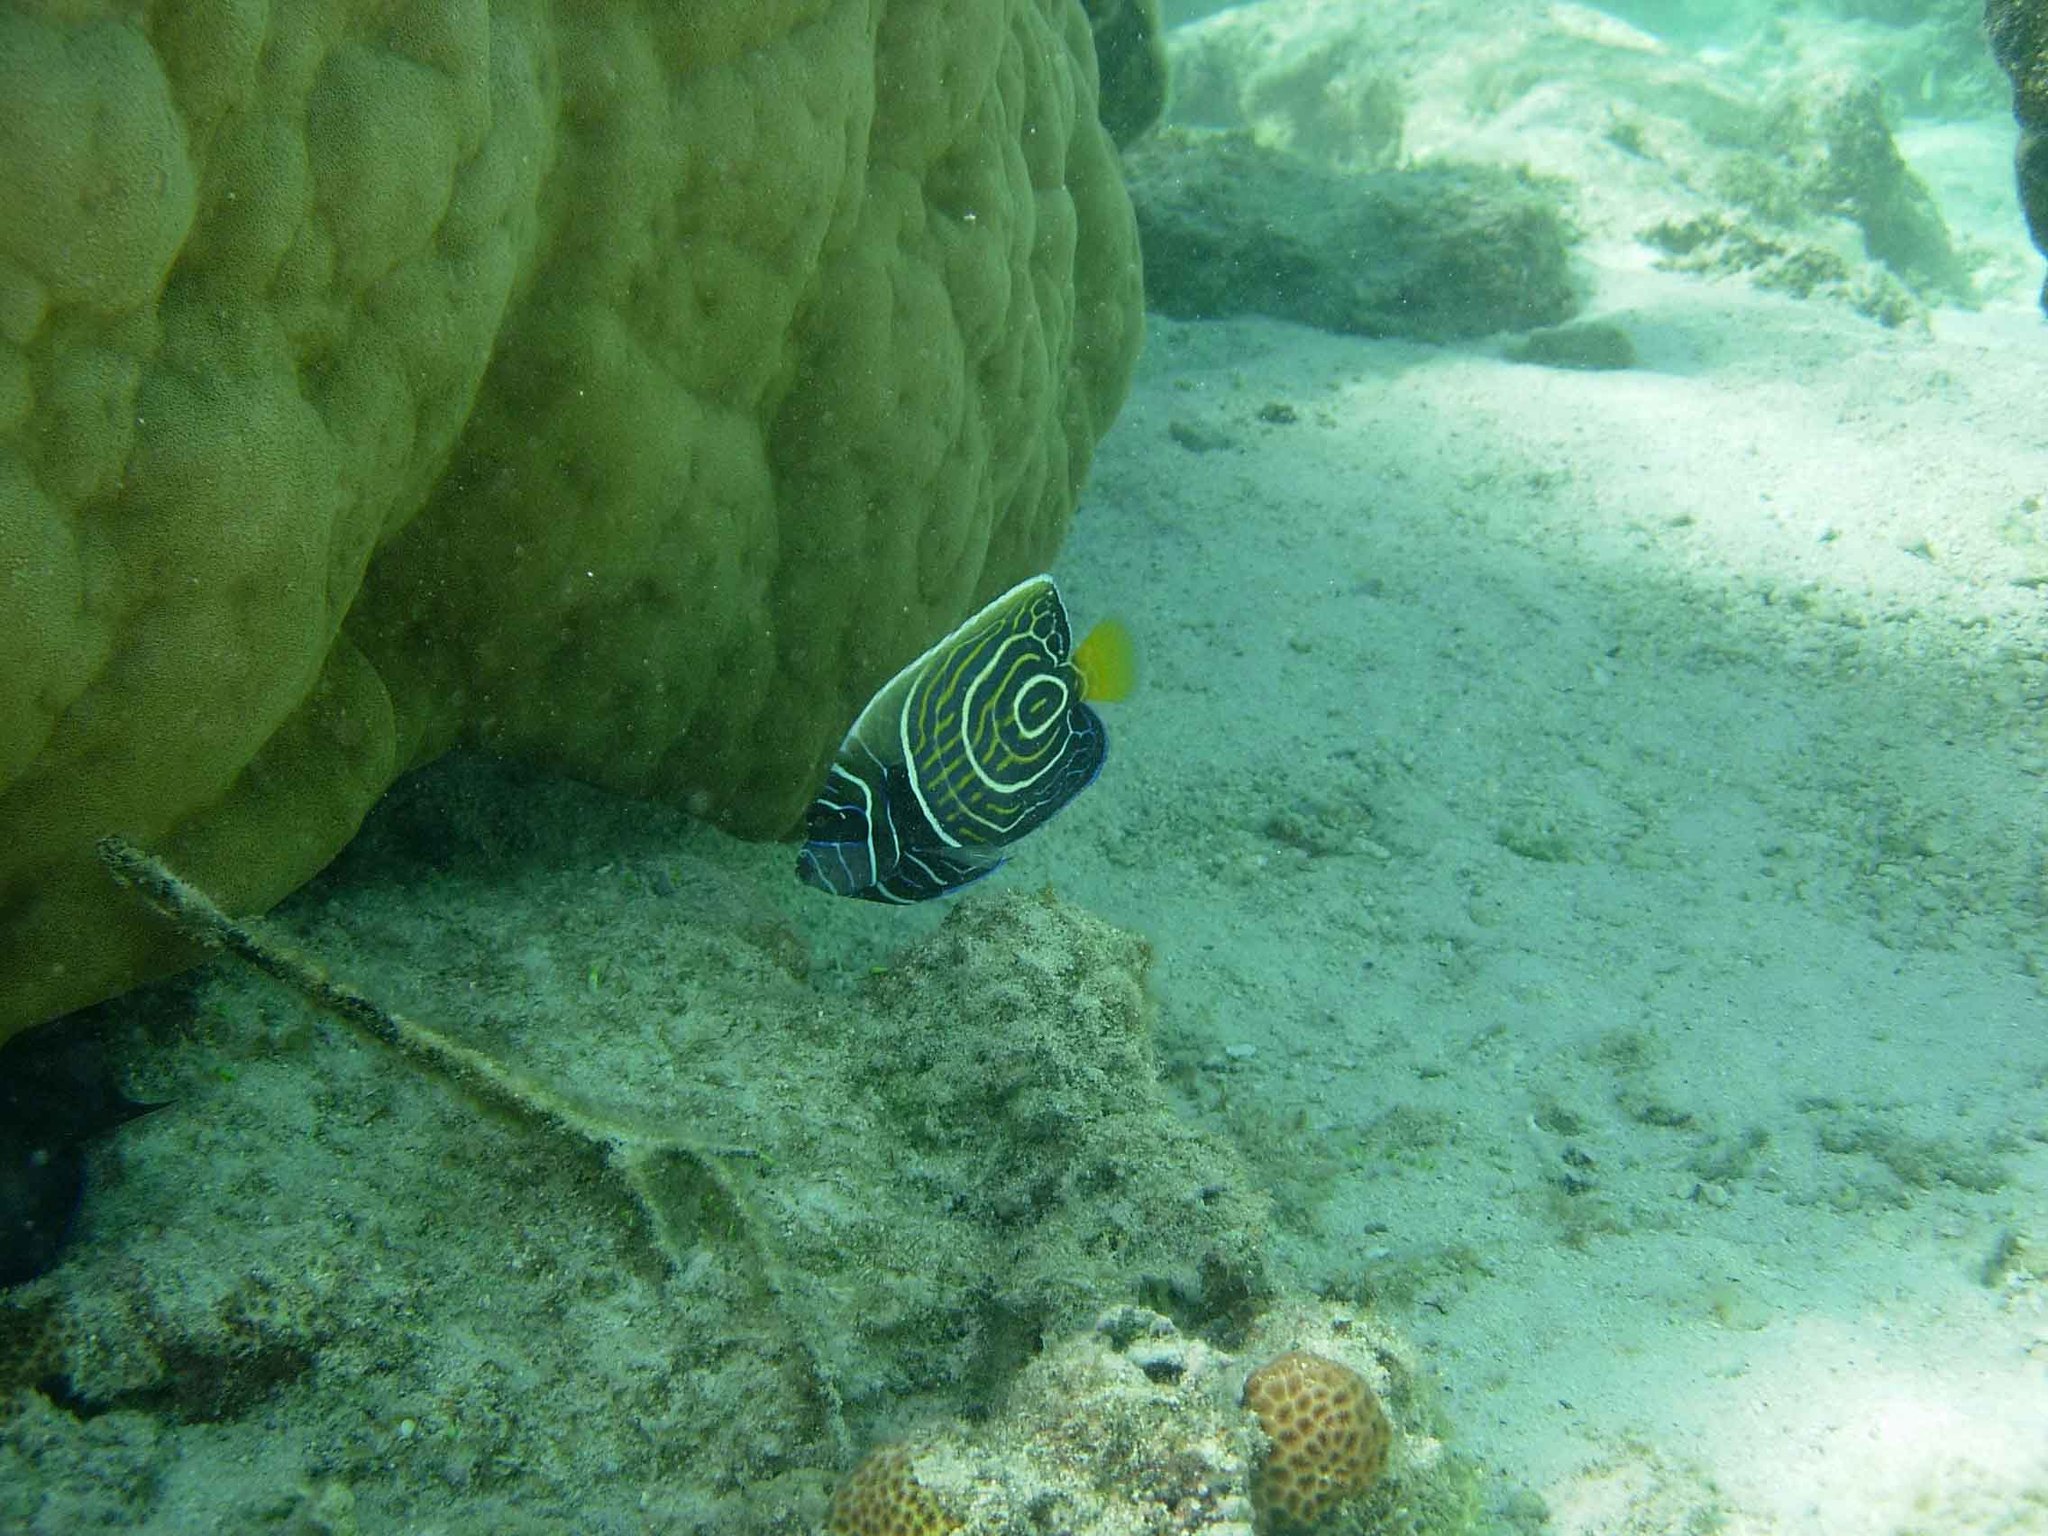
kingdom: Animalia
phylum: Chordata
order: Perciformes
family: Pomacanthidae
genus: Pomacanthus
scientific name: Pomacanthus imperator
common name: Emperor angelfish
